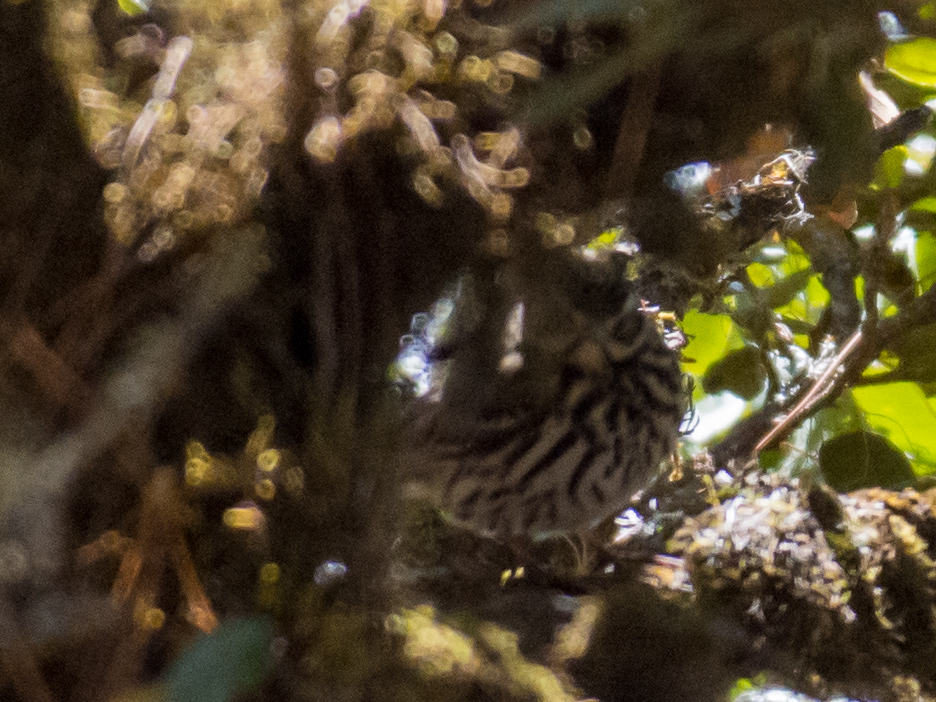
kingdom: Animalia
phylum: Chordata
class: Aves
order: Passeriformes
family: Motacillidae
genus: Anthus
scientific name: Anthus hodgsoni
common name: Olive-backed pipit
